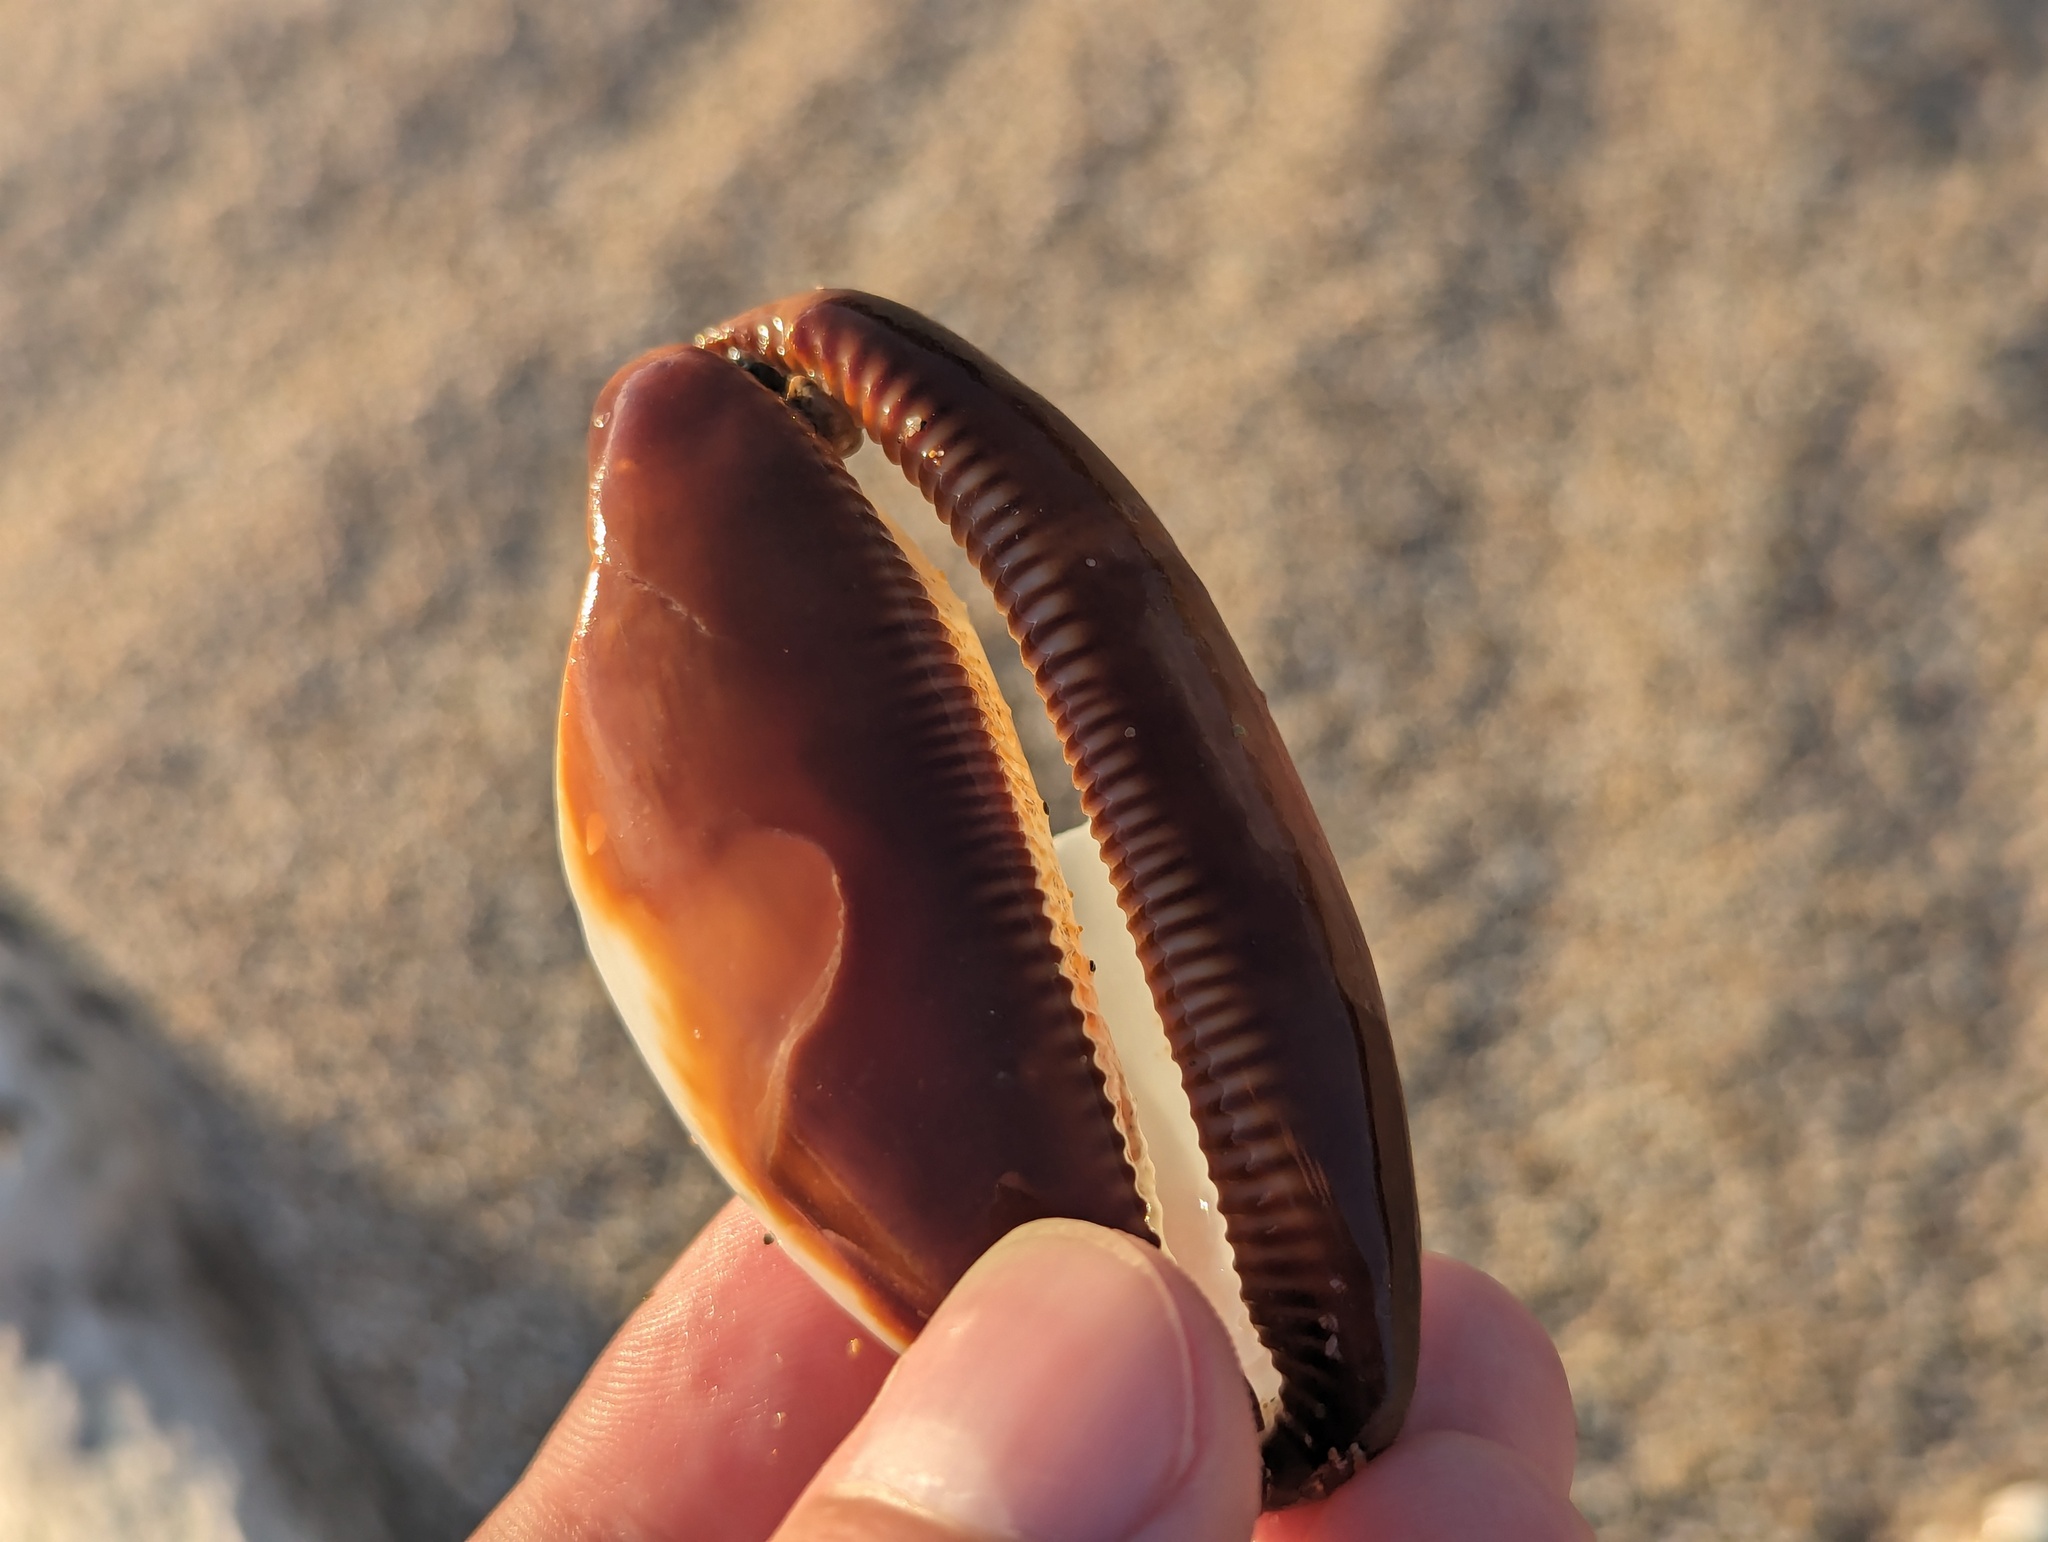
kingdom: Animalia
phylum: Mollusca
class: Gastropoda
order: Littorinimorpha
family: Cypraeidae
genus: Talparia
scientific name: Talparia talpa
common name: Mole cowrie
